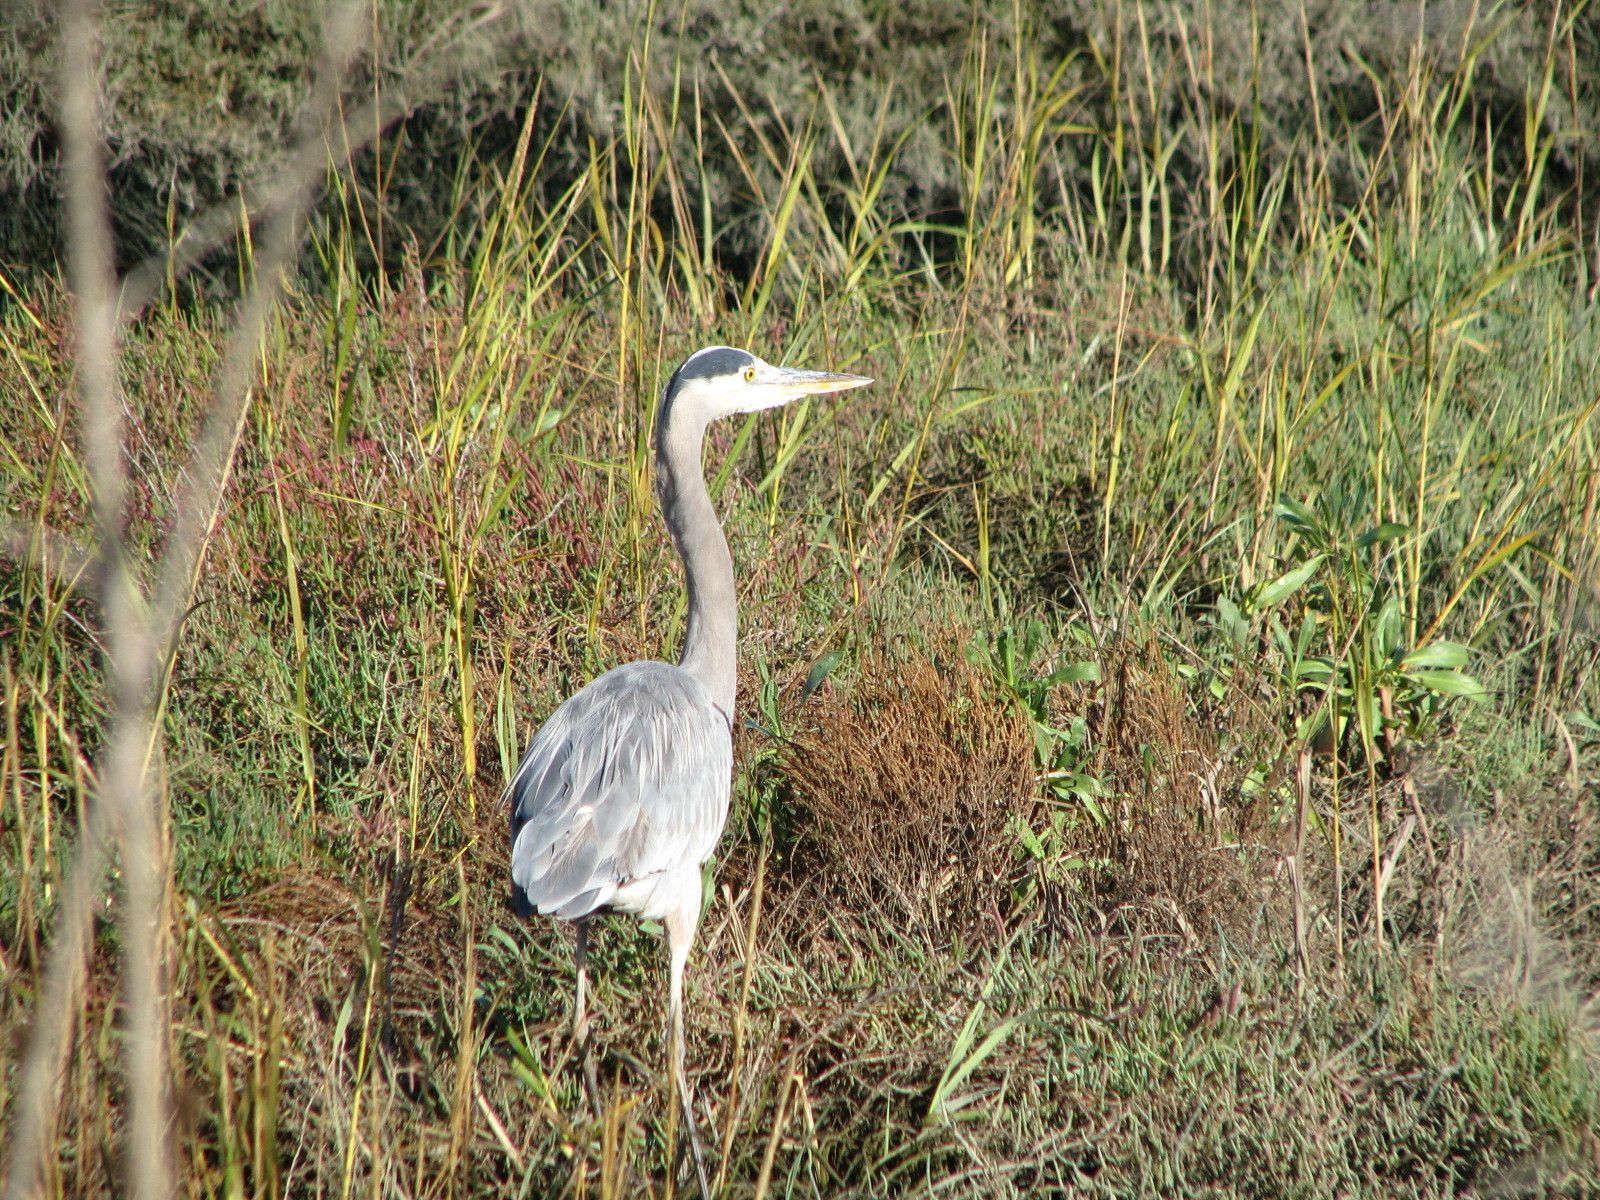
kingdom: Animalia
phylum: Chordata
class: Aves
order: Pelecaniformes
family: Ardeidae
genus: Ardea
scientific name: Ardea herodias
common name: Great blue heron
